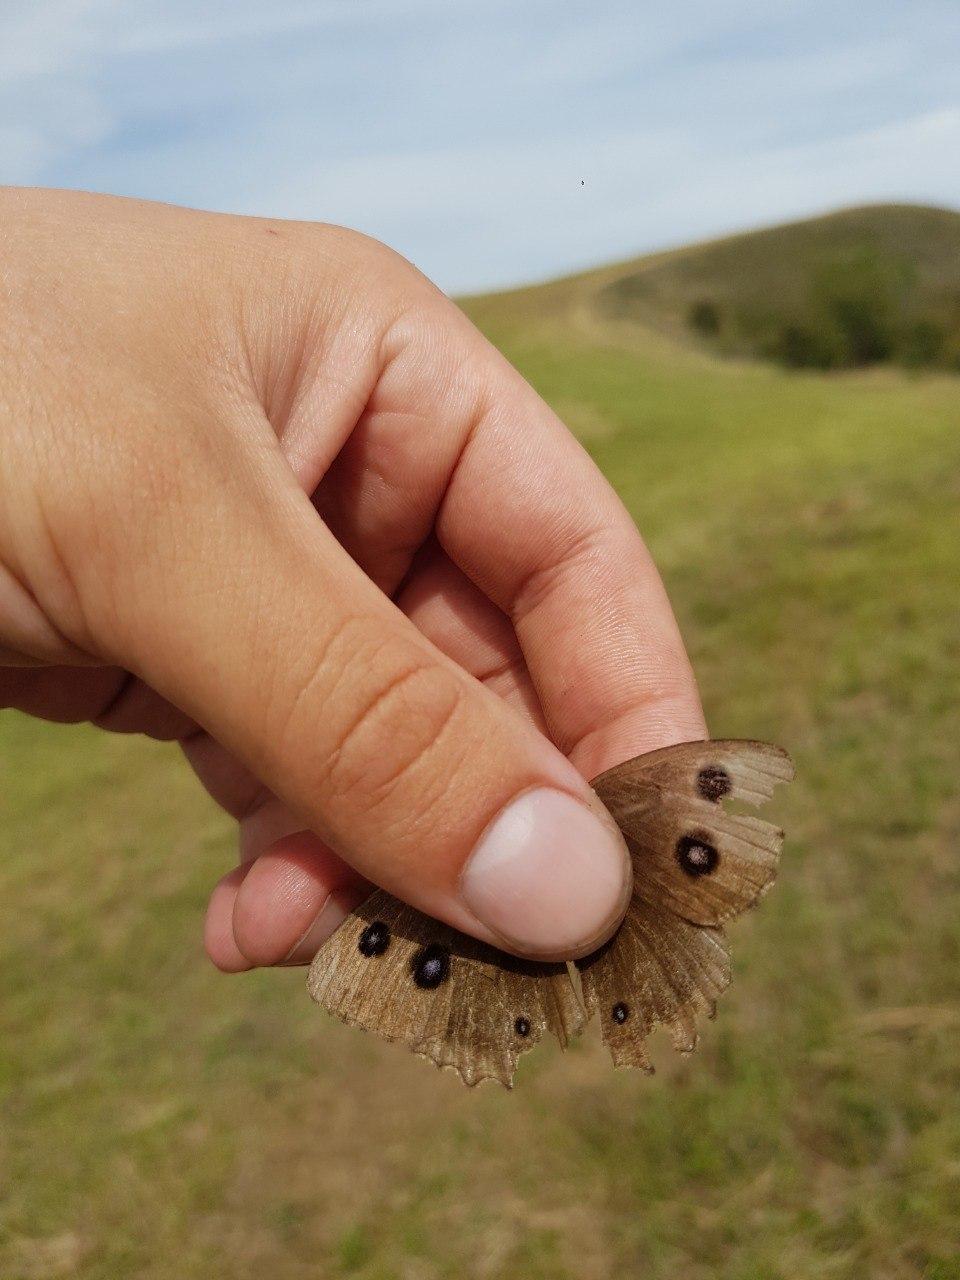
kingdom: Animalia
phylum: Arthropoda
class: Insecta
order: Lepidoptera
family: Nymphalidae
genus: Minois
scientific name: Minois dryas
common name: Dryad
